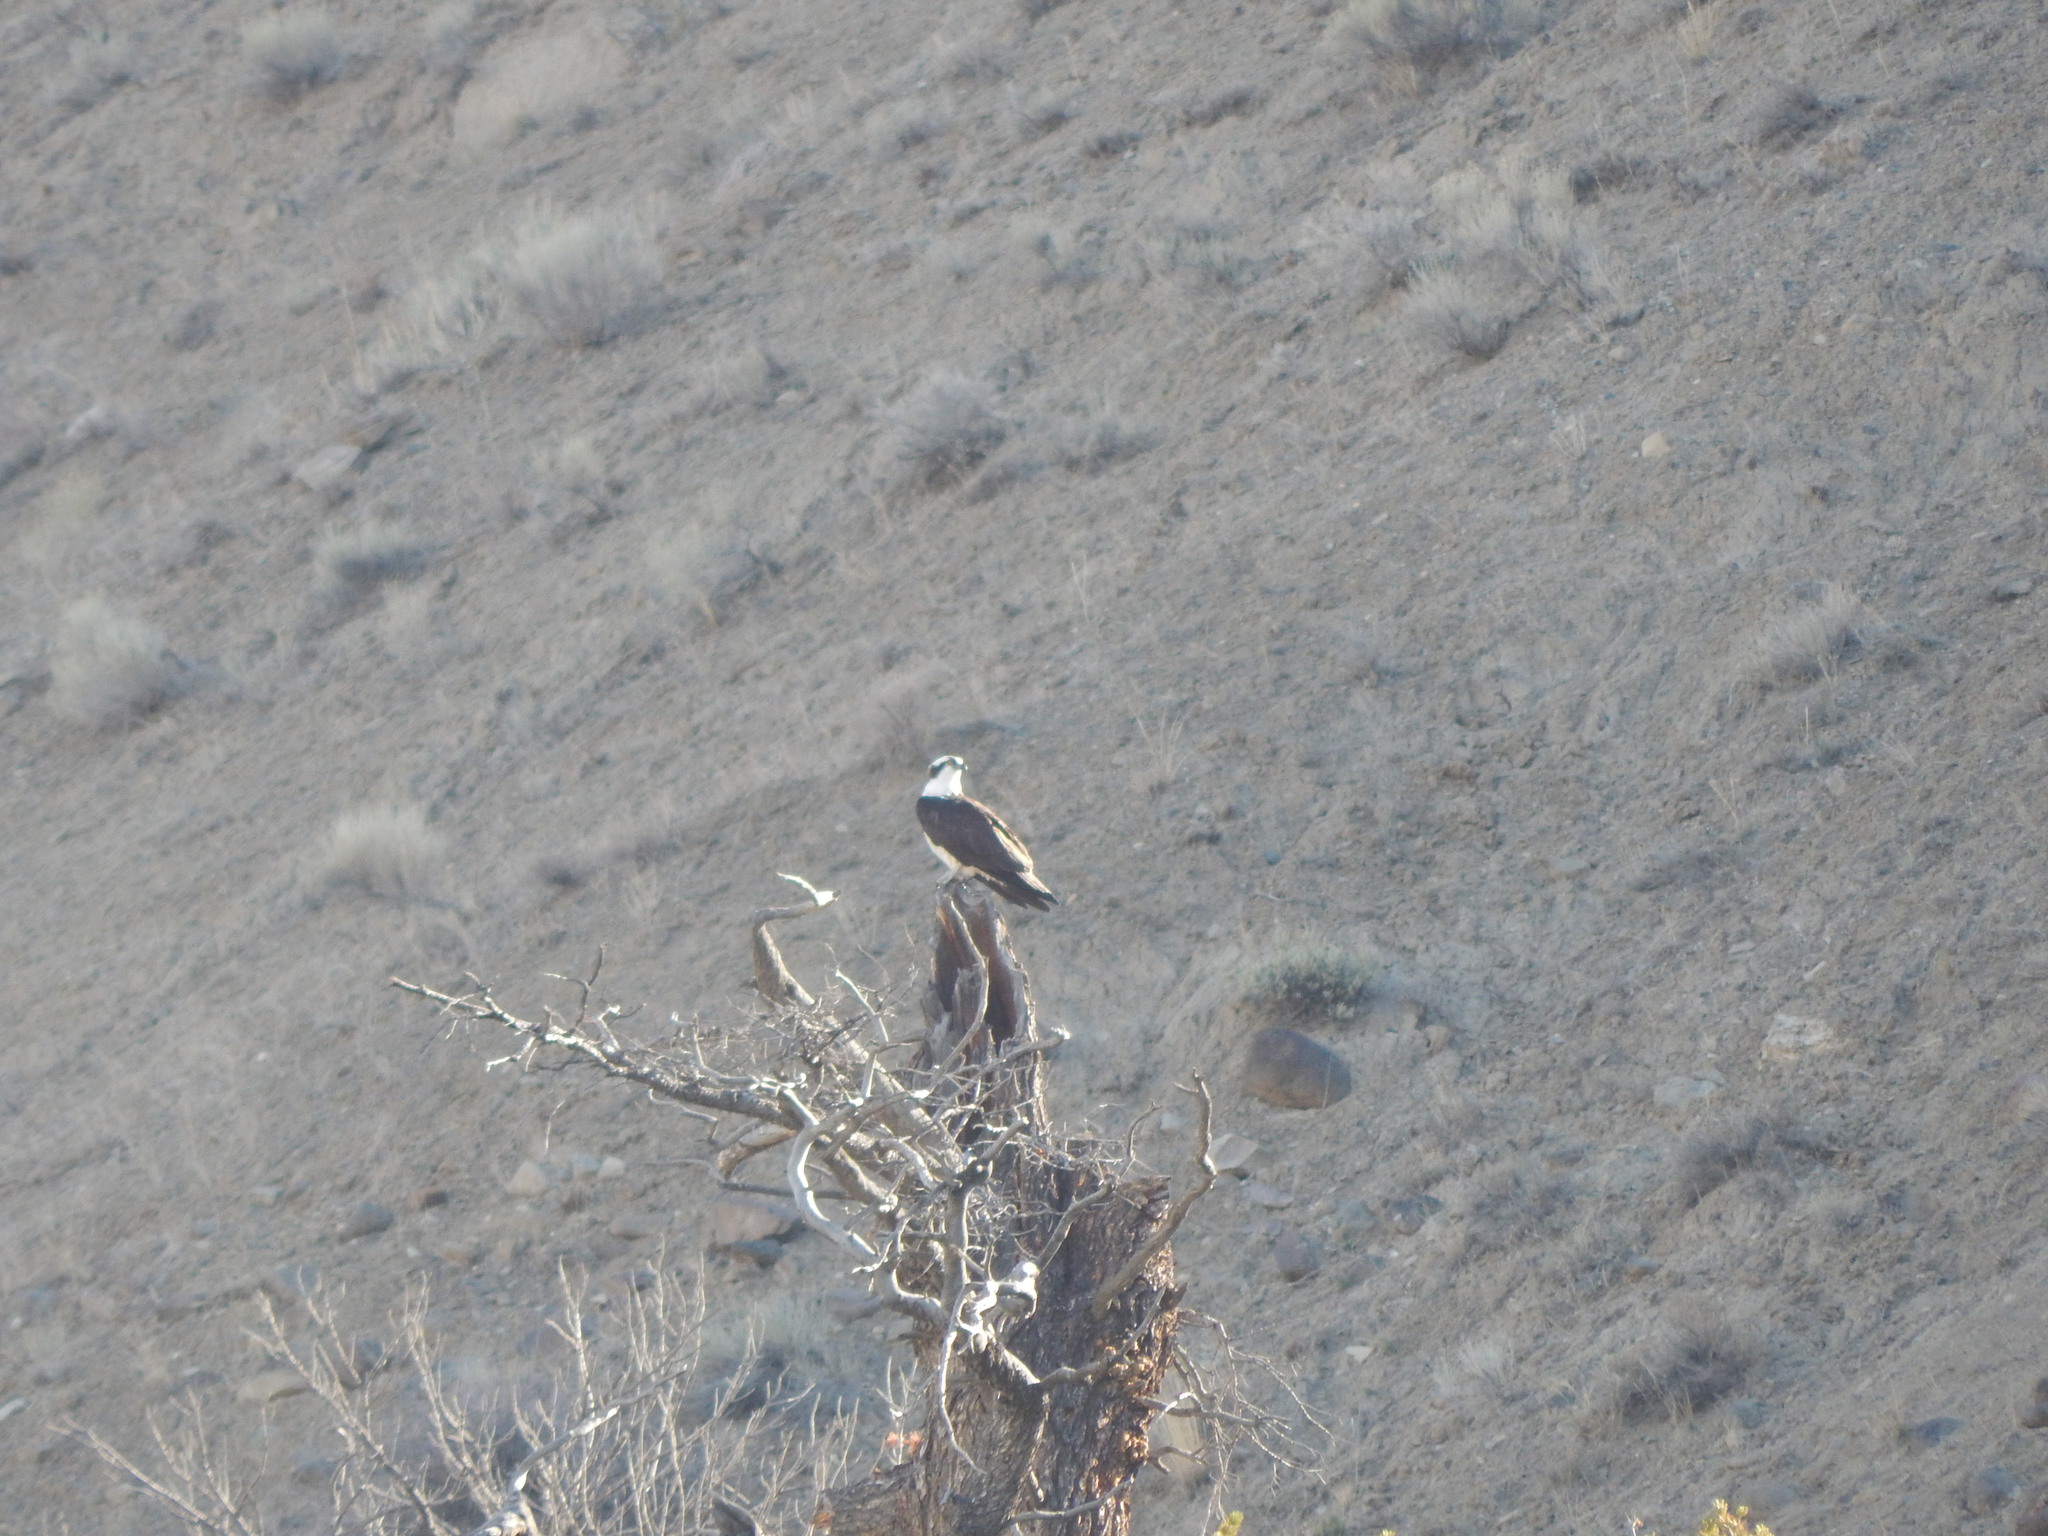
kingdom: Animalia
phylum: Chordata
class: Aves
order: Accipitriformes
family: Pandionidae
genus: Pandion
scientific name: Pandion haliaetus
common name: Osprey
